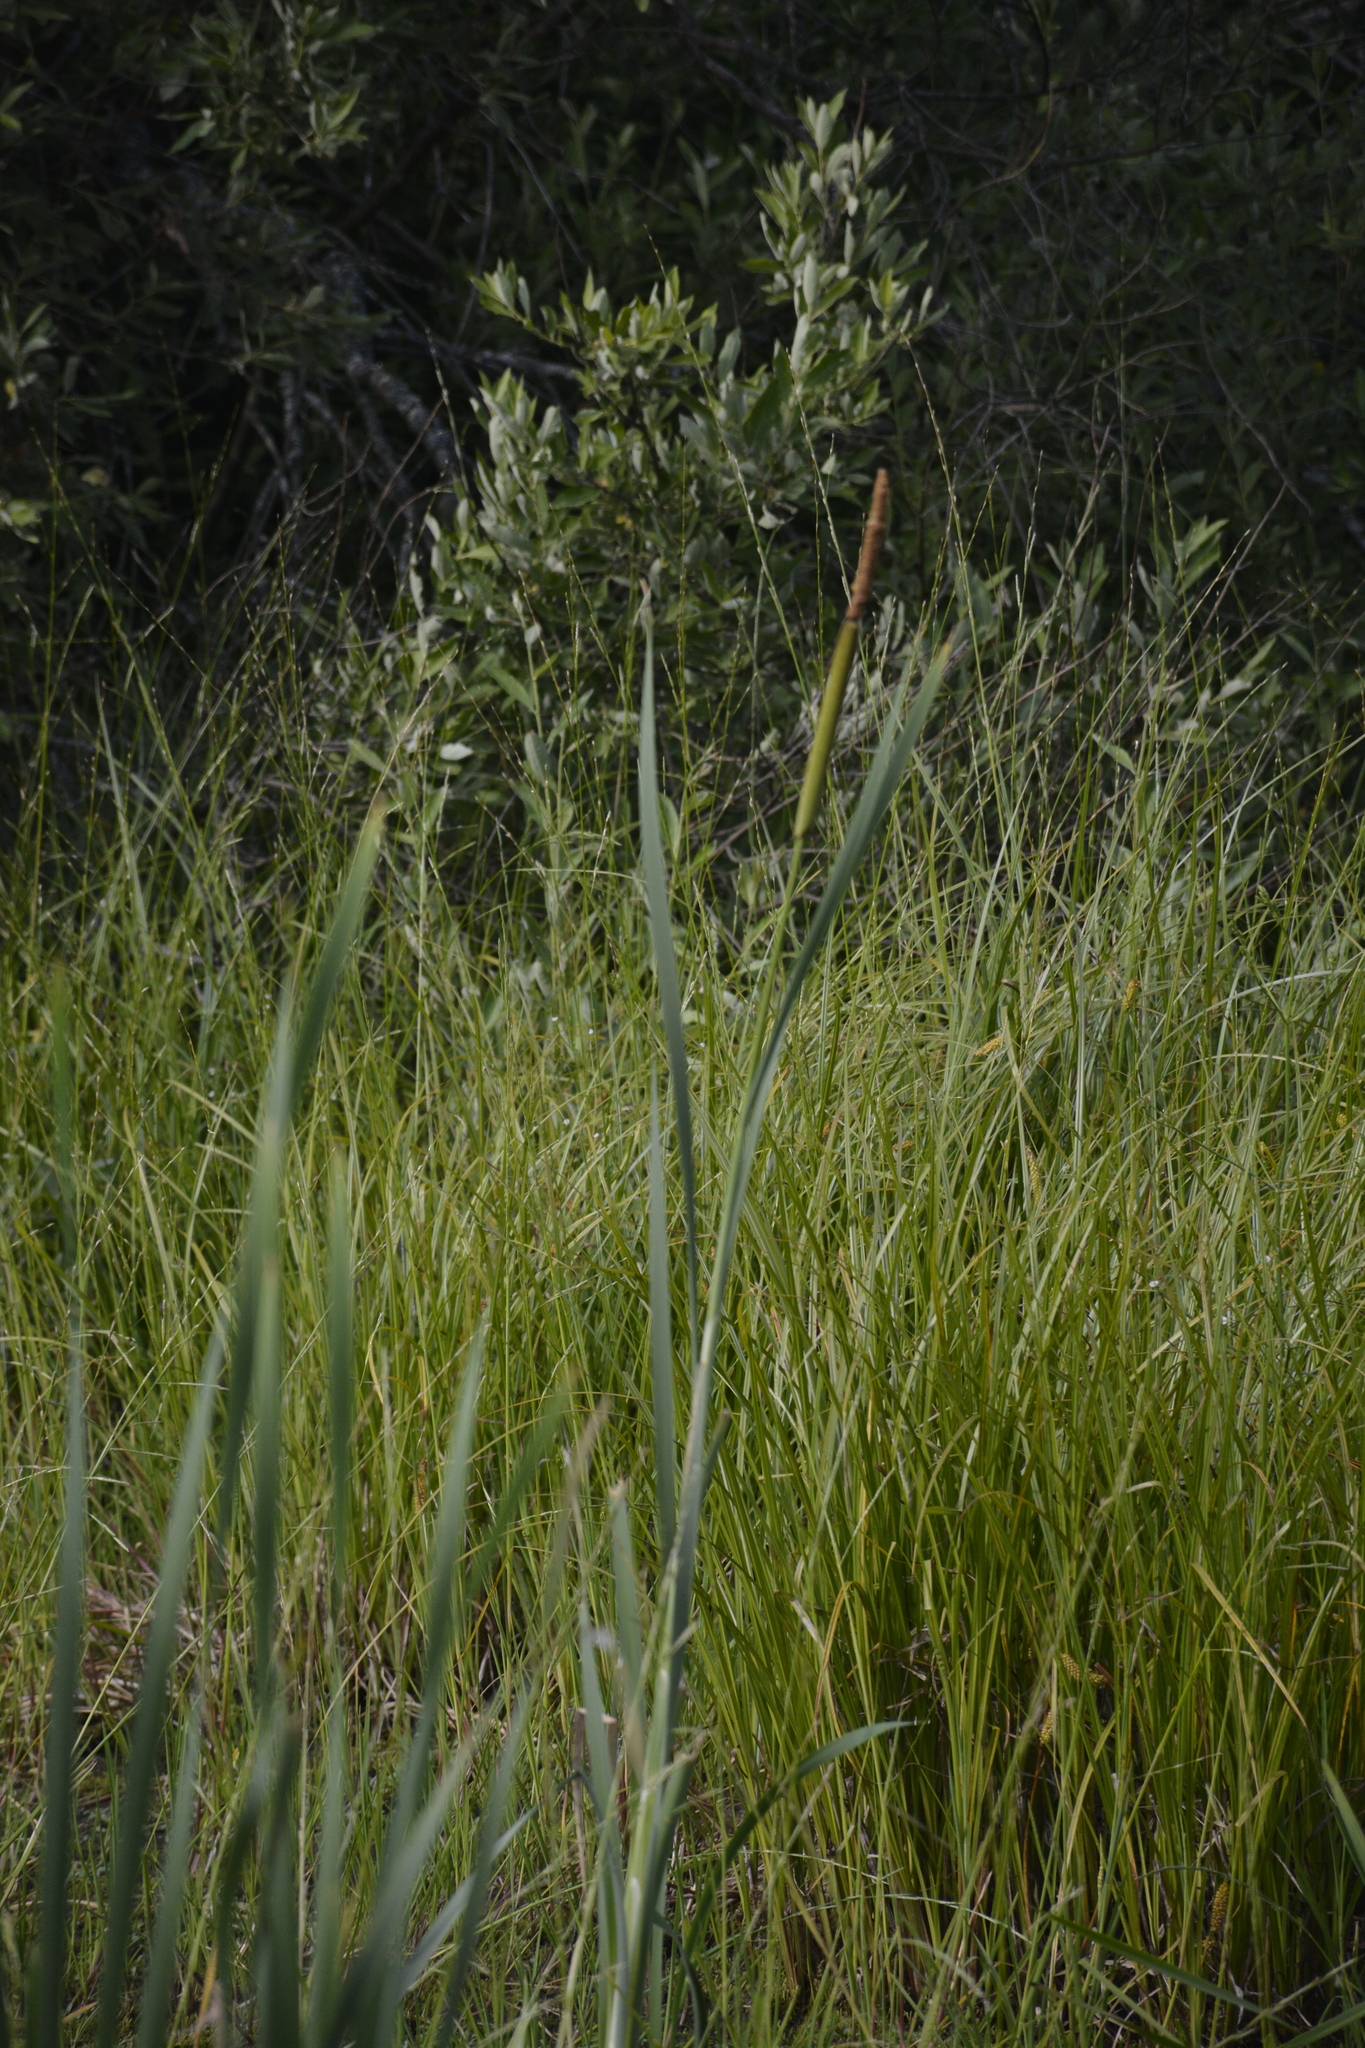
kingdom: Plantae
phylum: Tracheophyta
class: Liliopsida
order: Poales
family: Typhaceae
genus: Typha
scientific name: Typha latifolia
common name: Broadleaf cattail
